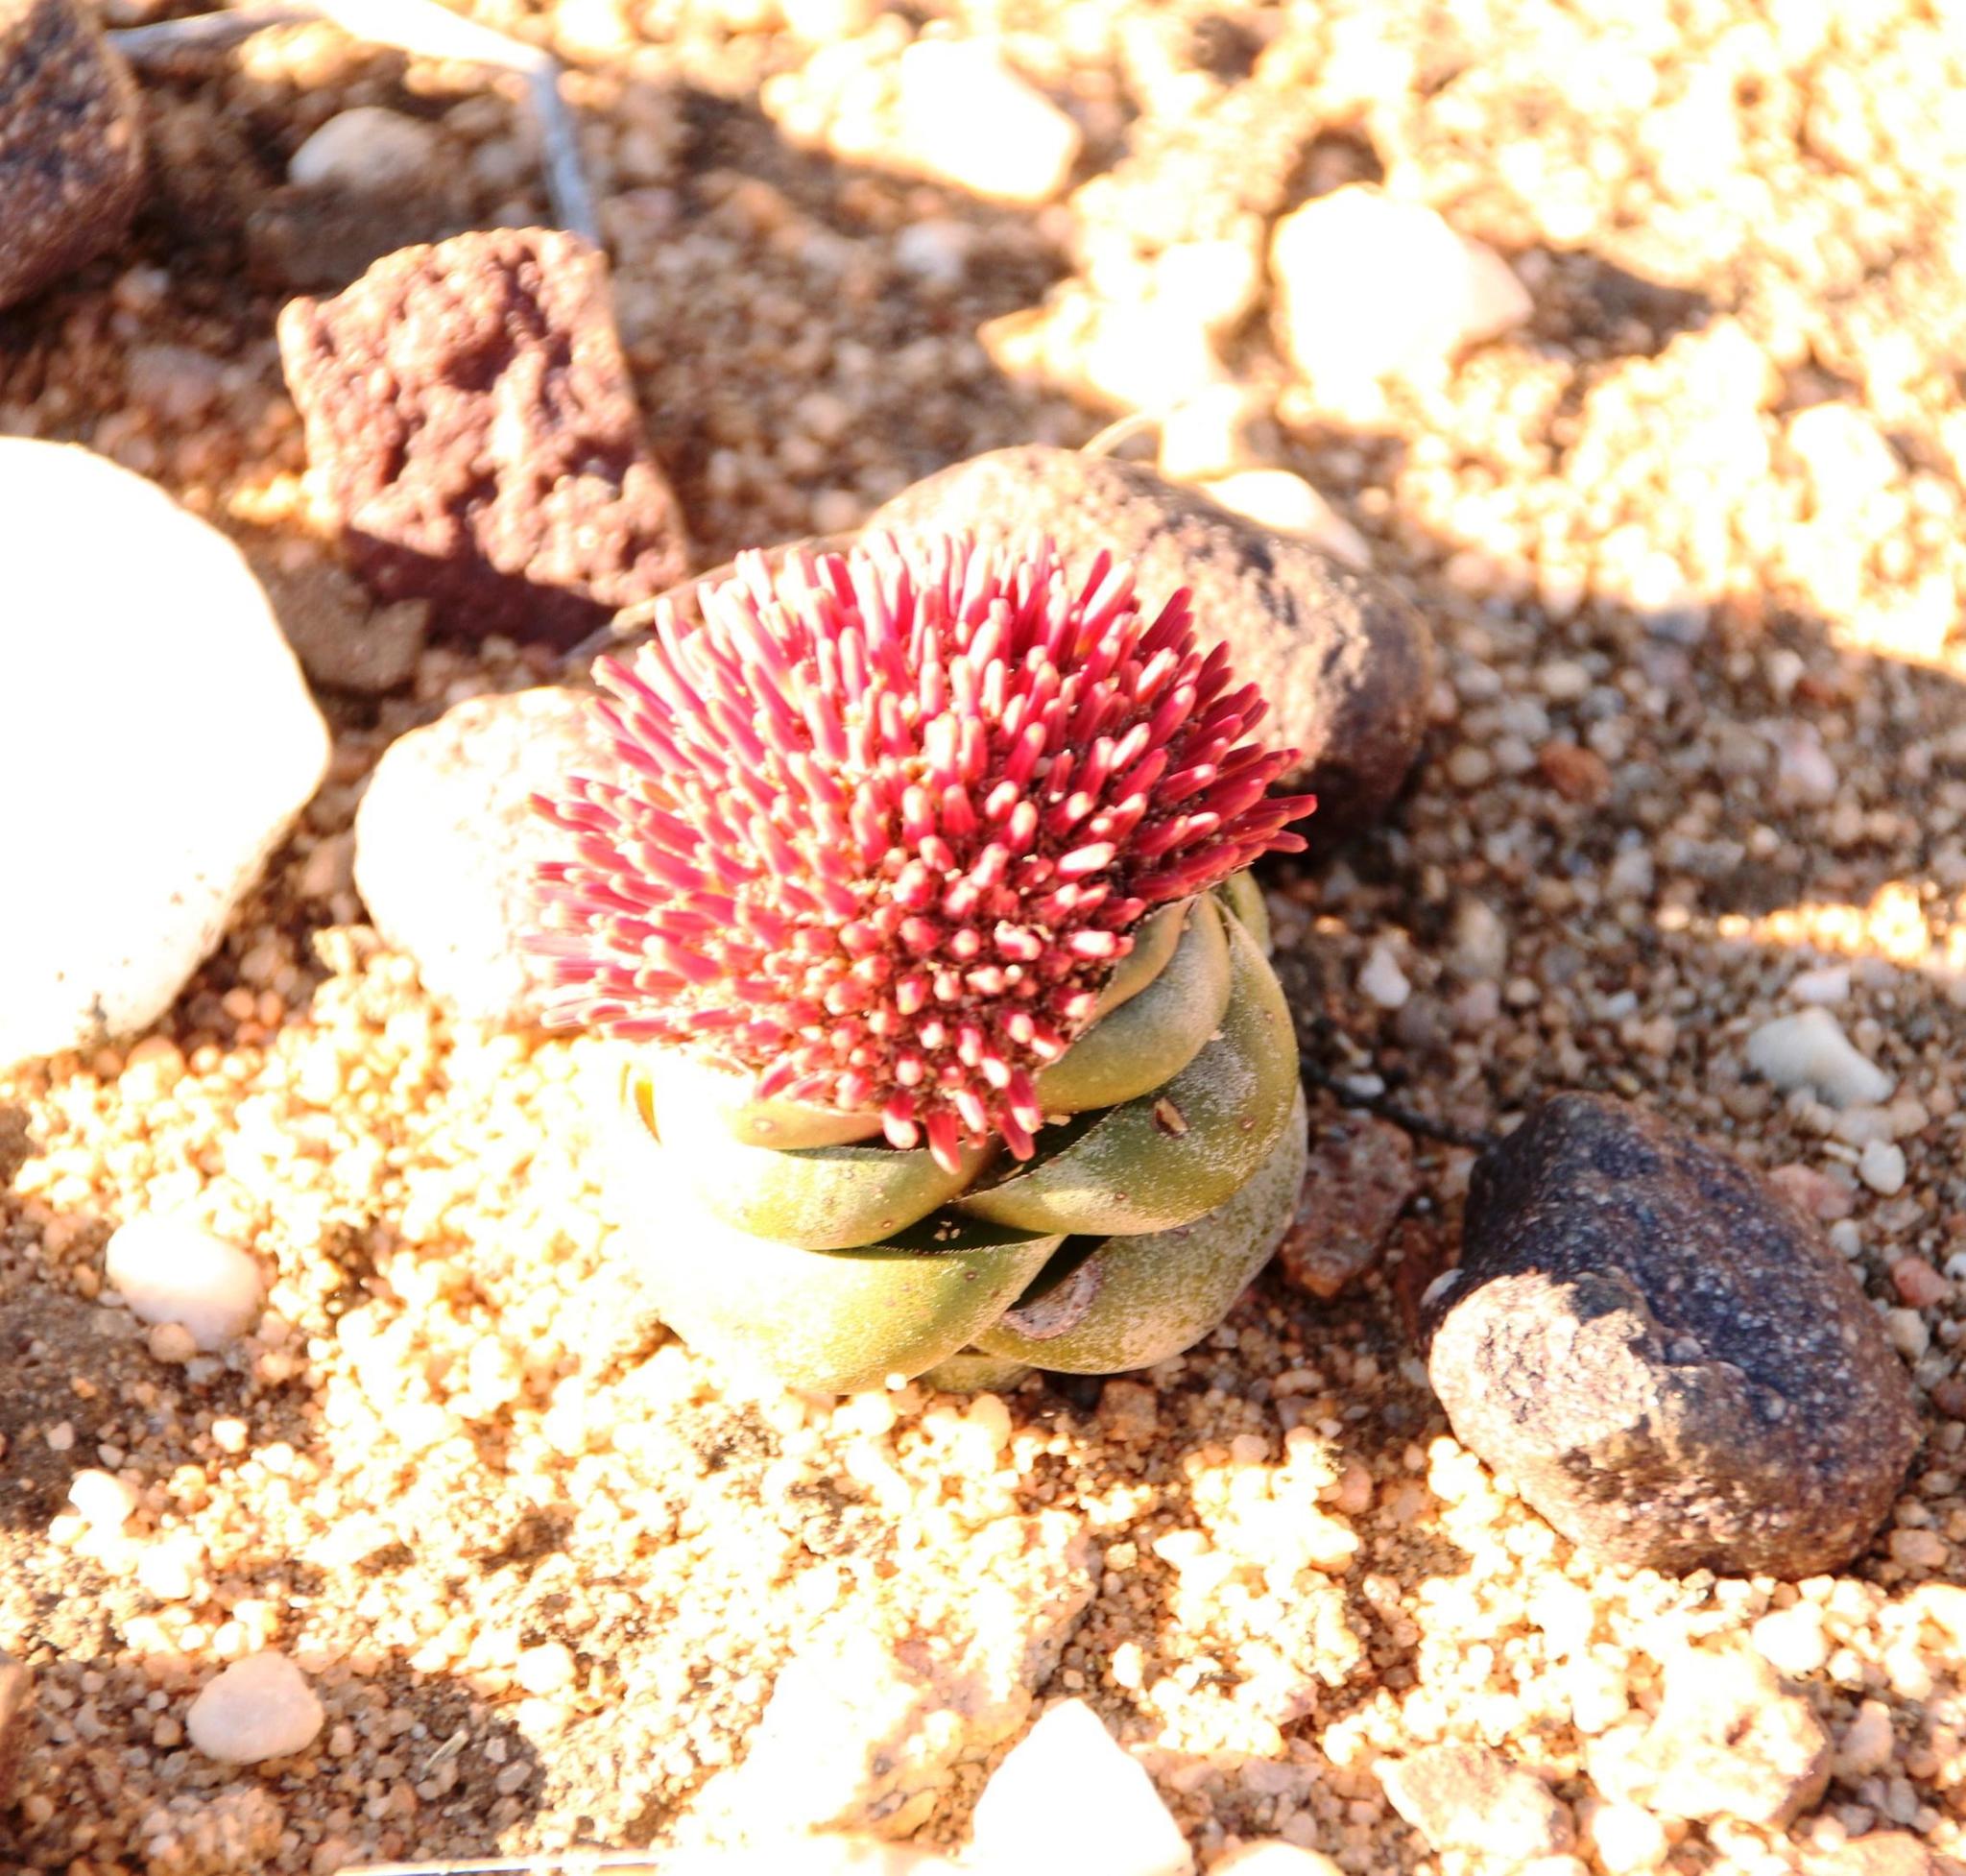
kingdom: Plantae
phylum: Tracheophyta
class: Magnoliopsida
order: Saxifragales
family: Crassulaceae
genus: Crassula
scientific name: Crassula columnaris
